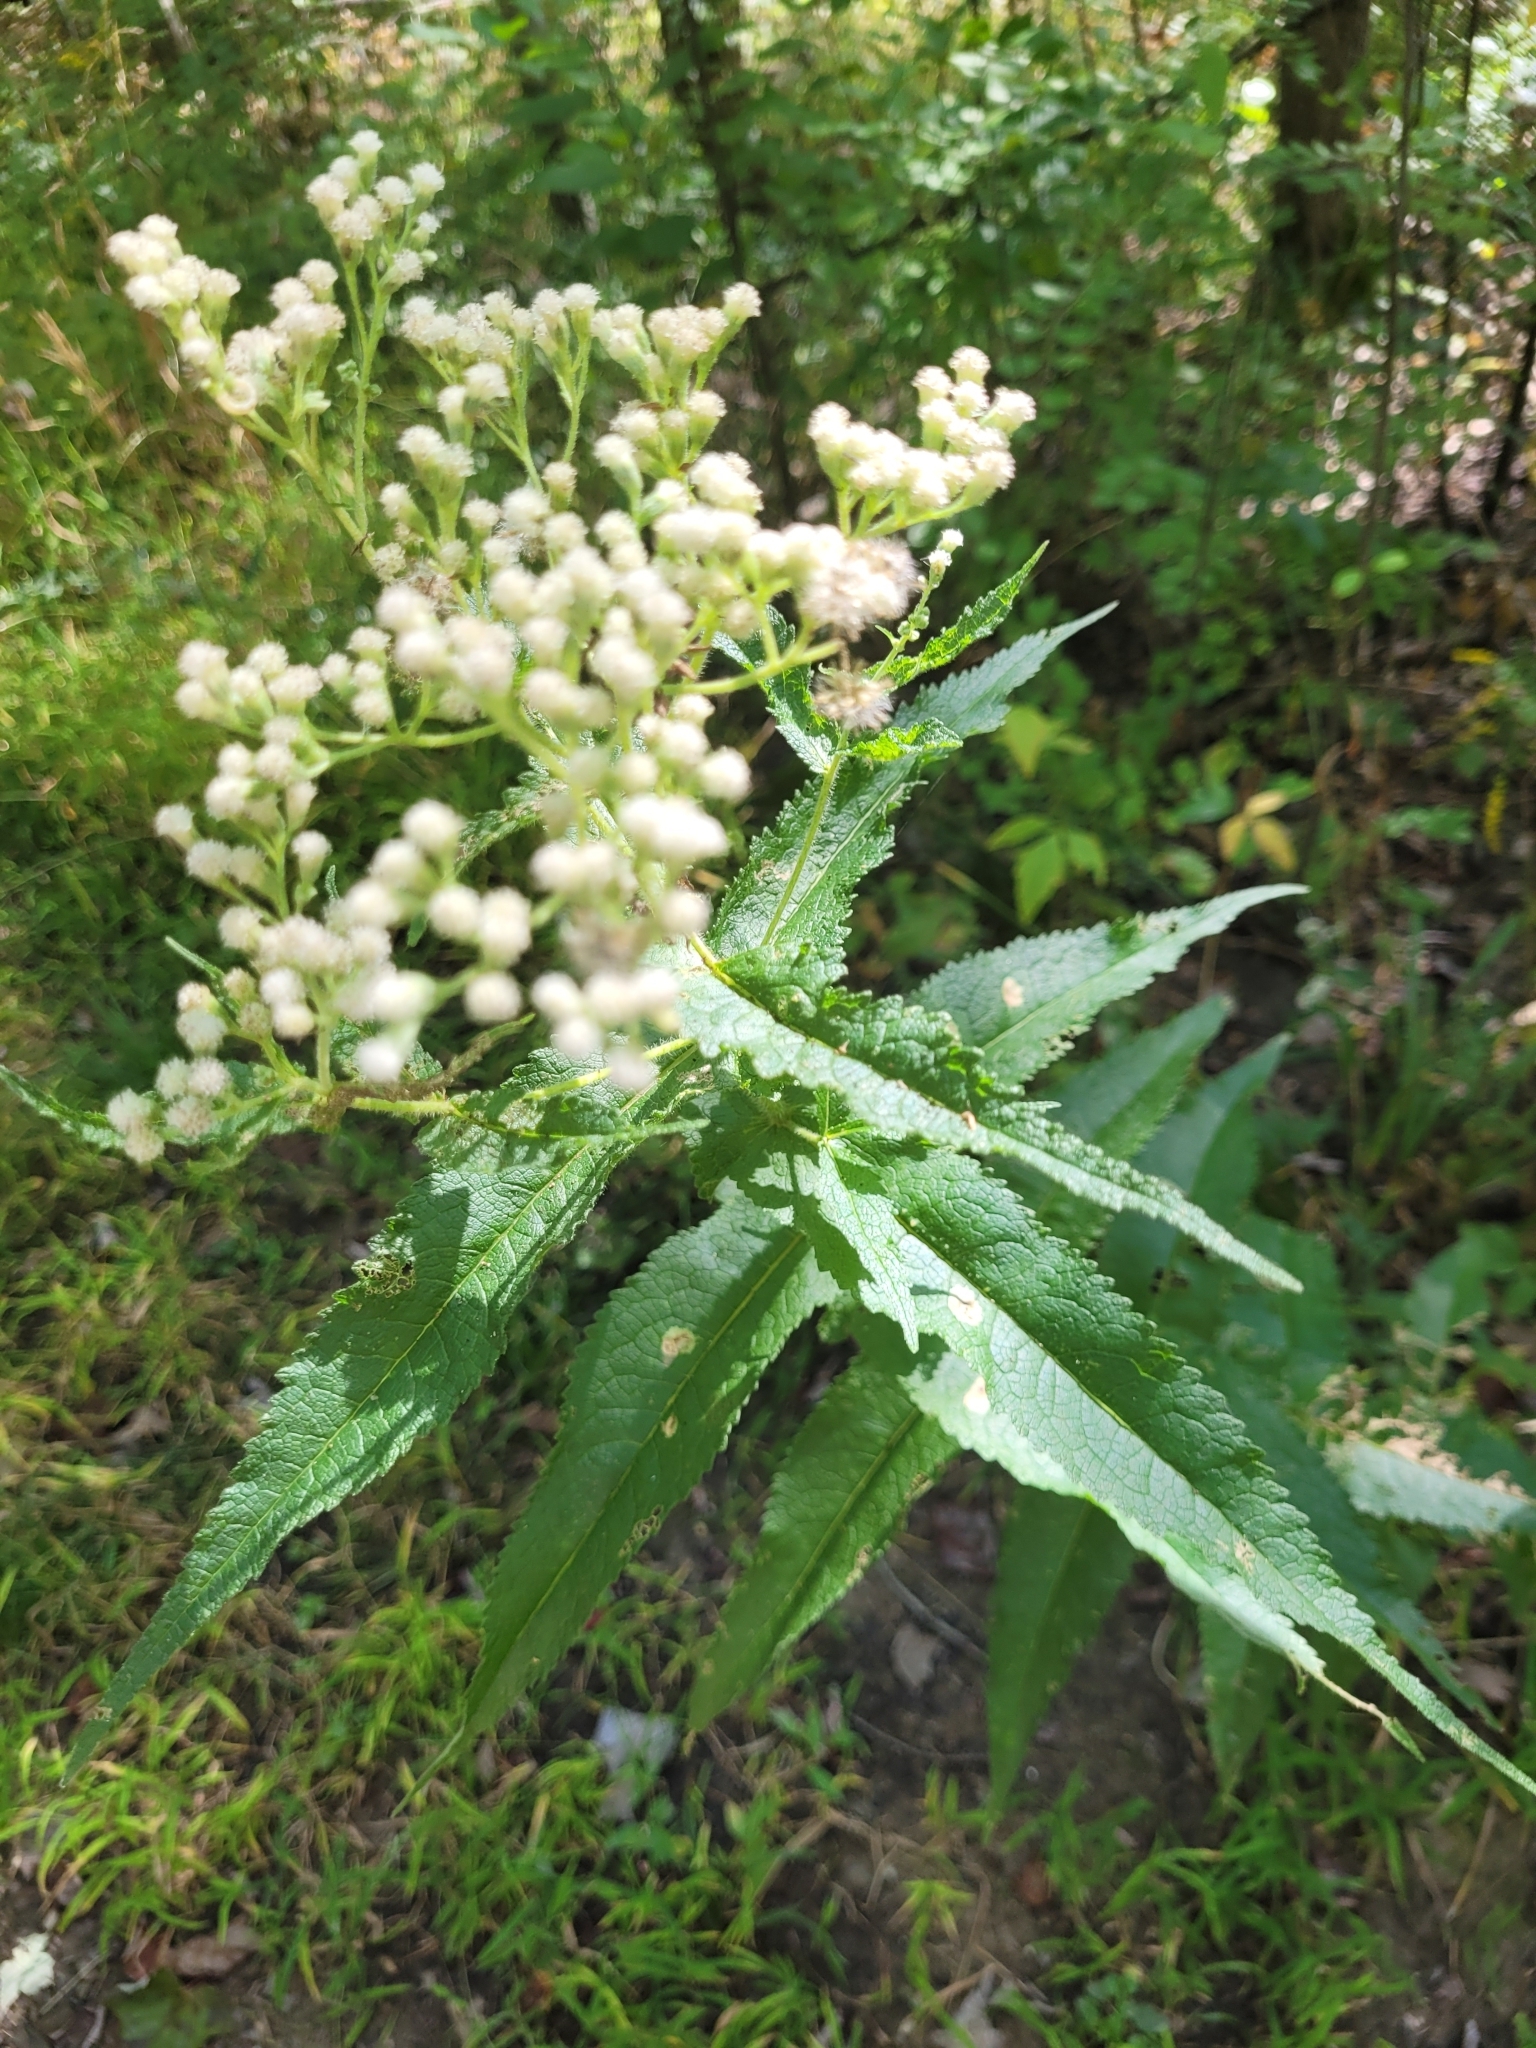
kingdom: Plantae
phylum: Tracheophyta
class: Magnoliopsida
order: Asterales
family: Asteraceae
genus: Eupatorium
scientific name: Eupatorium perfoliatum
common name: Boneset
